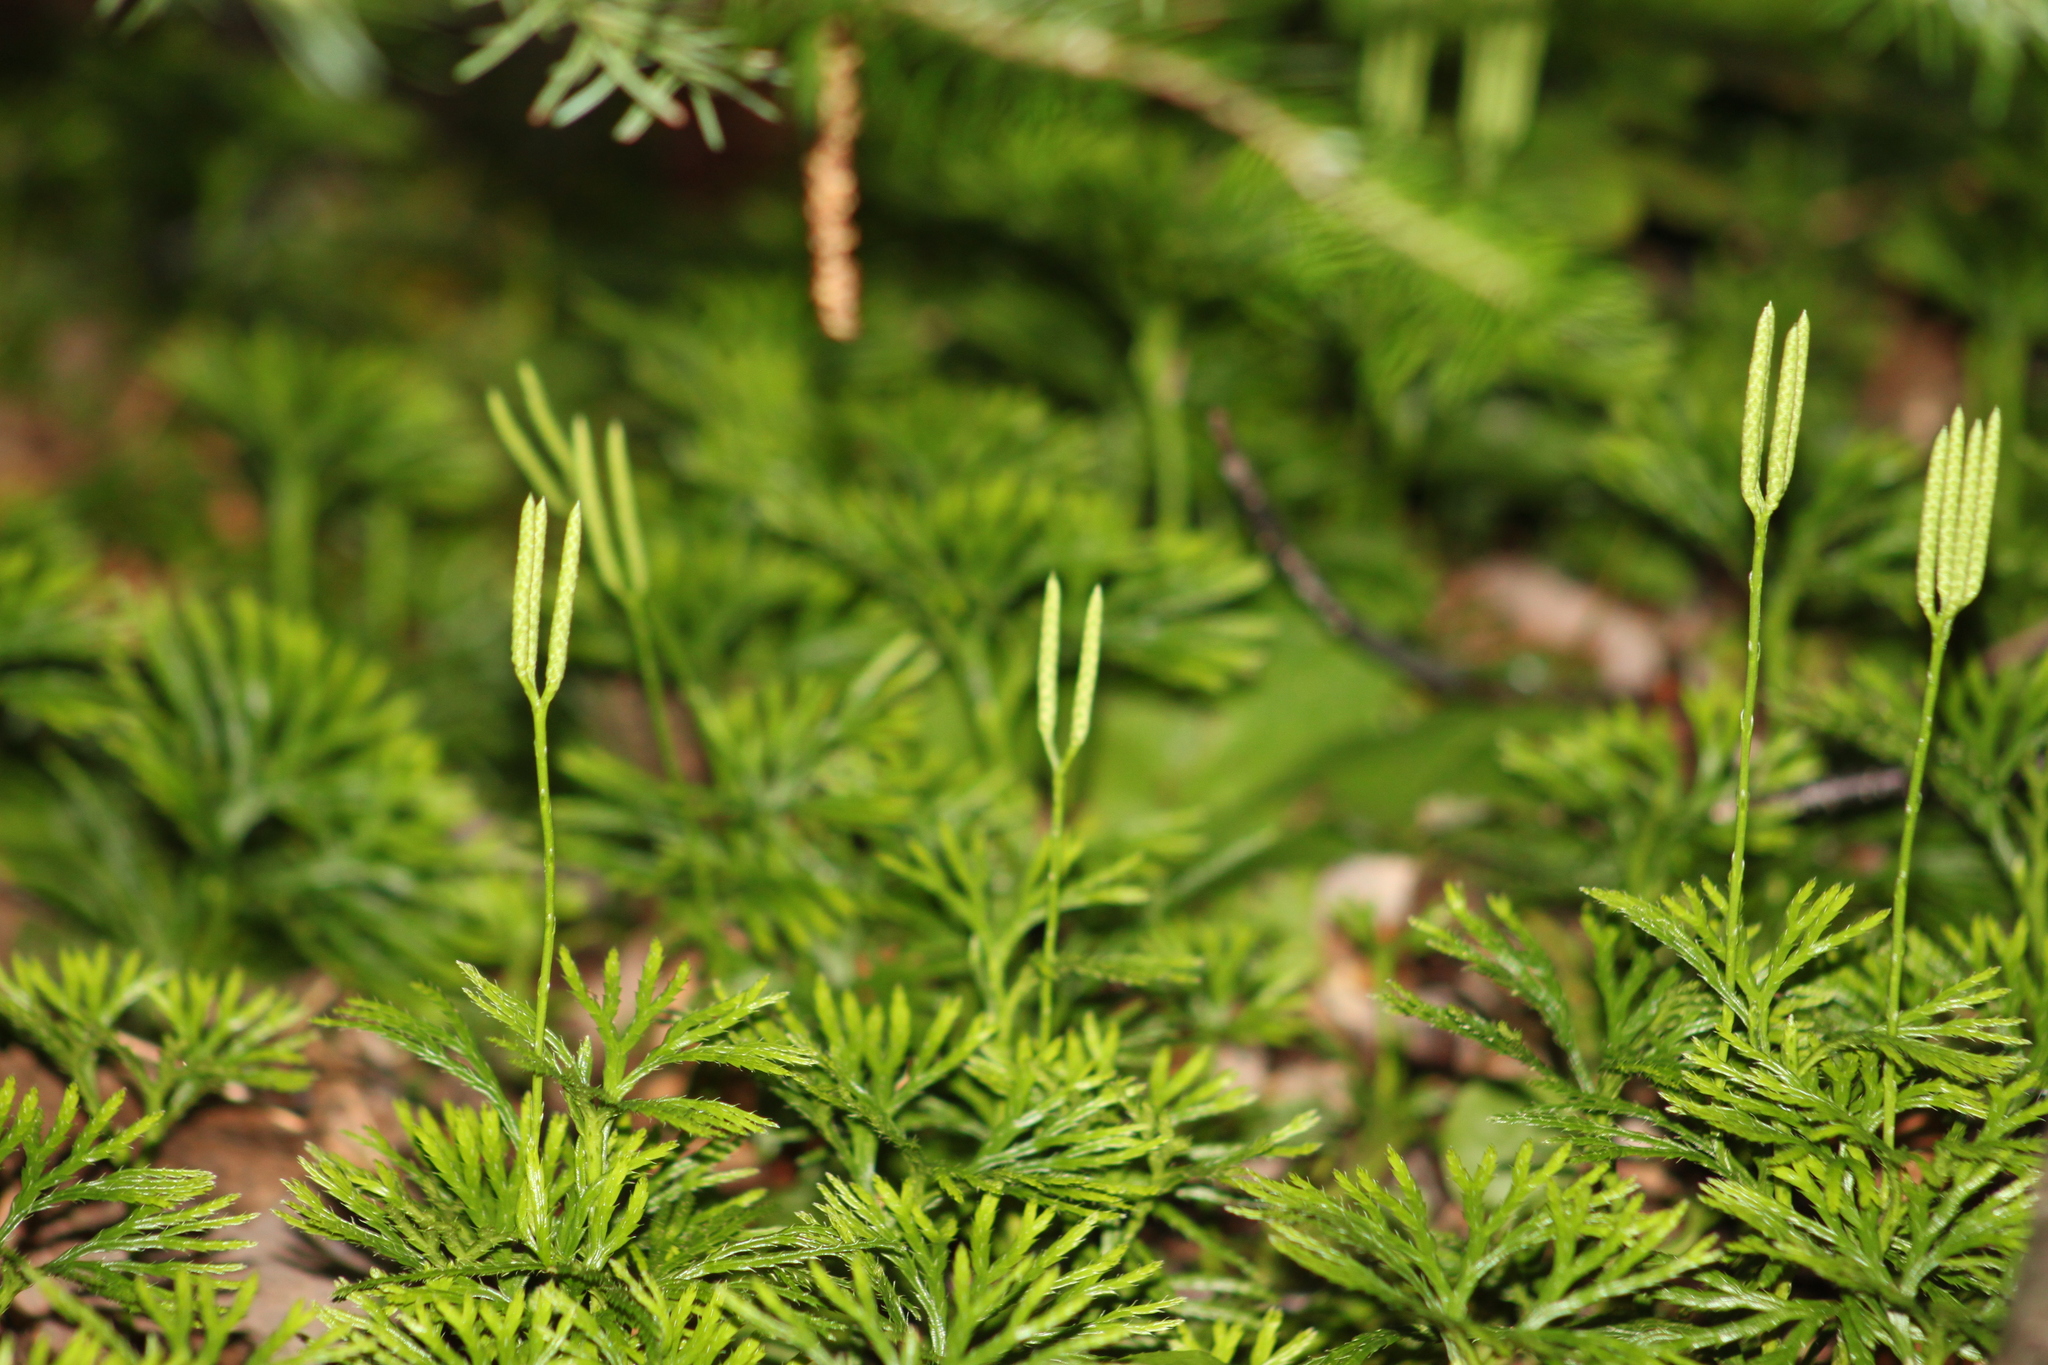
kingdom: Plantae
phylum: Tracheophyta
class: Lycopodiopsida
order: Lycopodiales
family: Lycopodiaceae
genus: Diphasiastrum
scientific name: Diphasiastrum digitatum
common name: Southern running-pine
